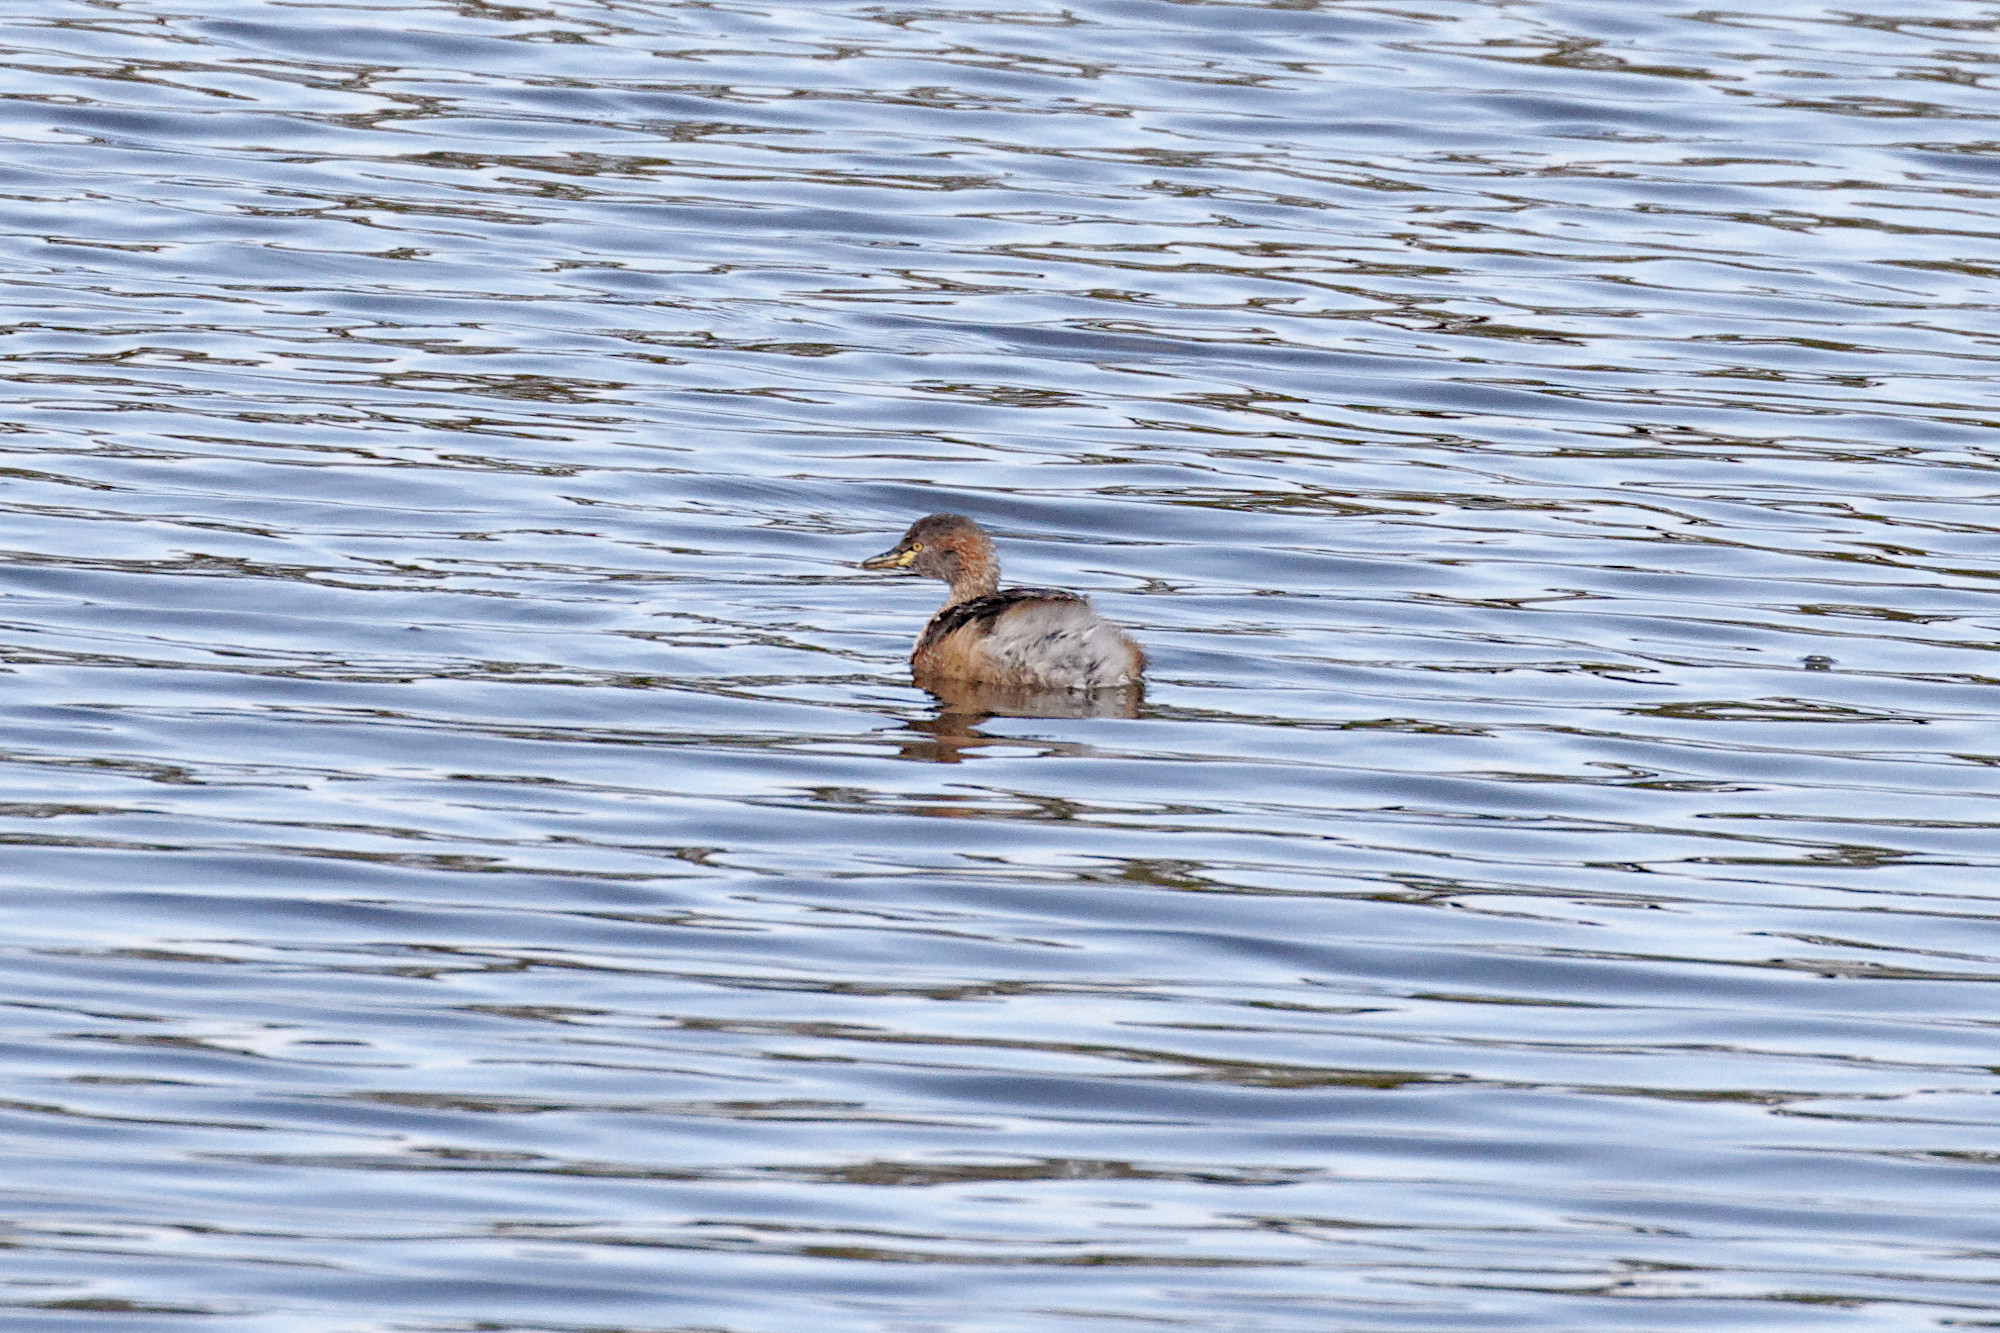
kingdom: Animalia
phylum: Chordata
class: Aves
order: Podicipediformes
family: Podicipedidae
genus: Tachybaptus
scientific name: Tachybaptus novaehollandiae
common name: Australasian grebe
